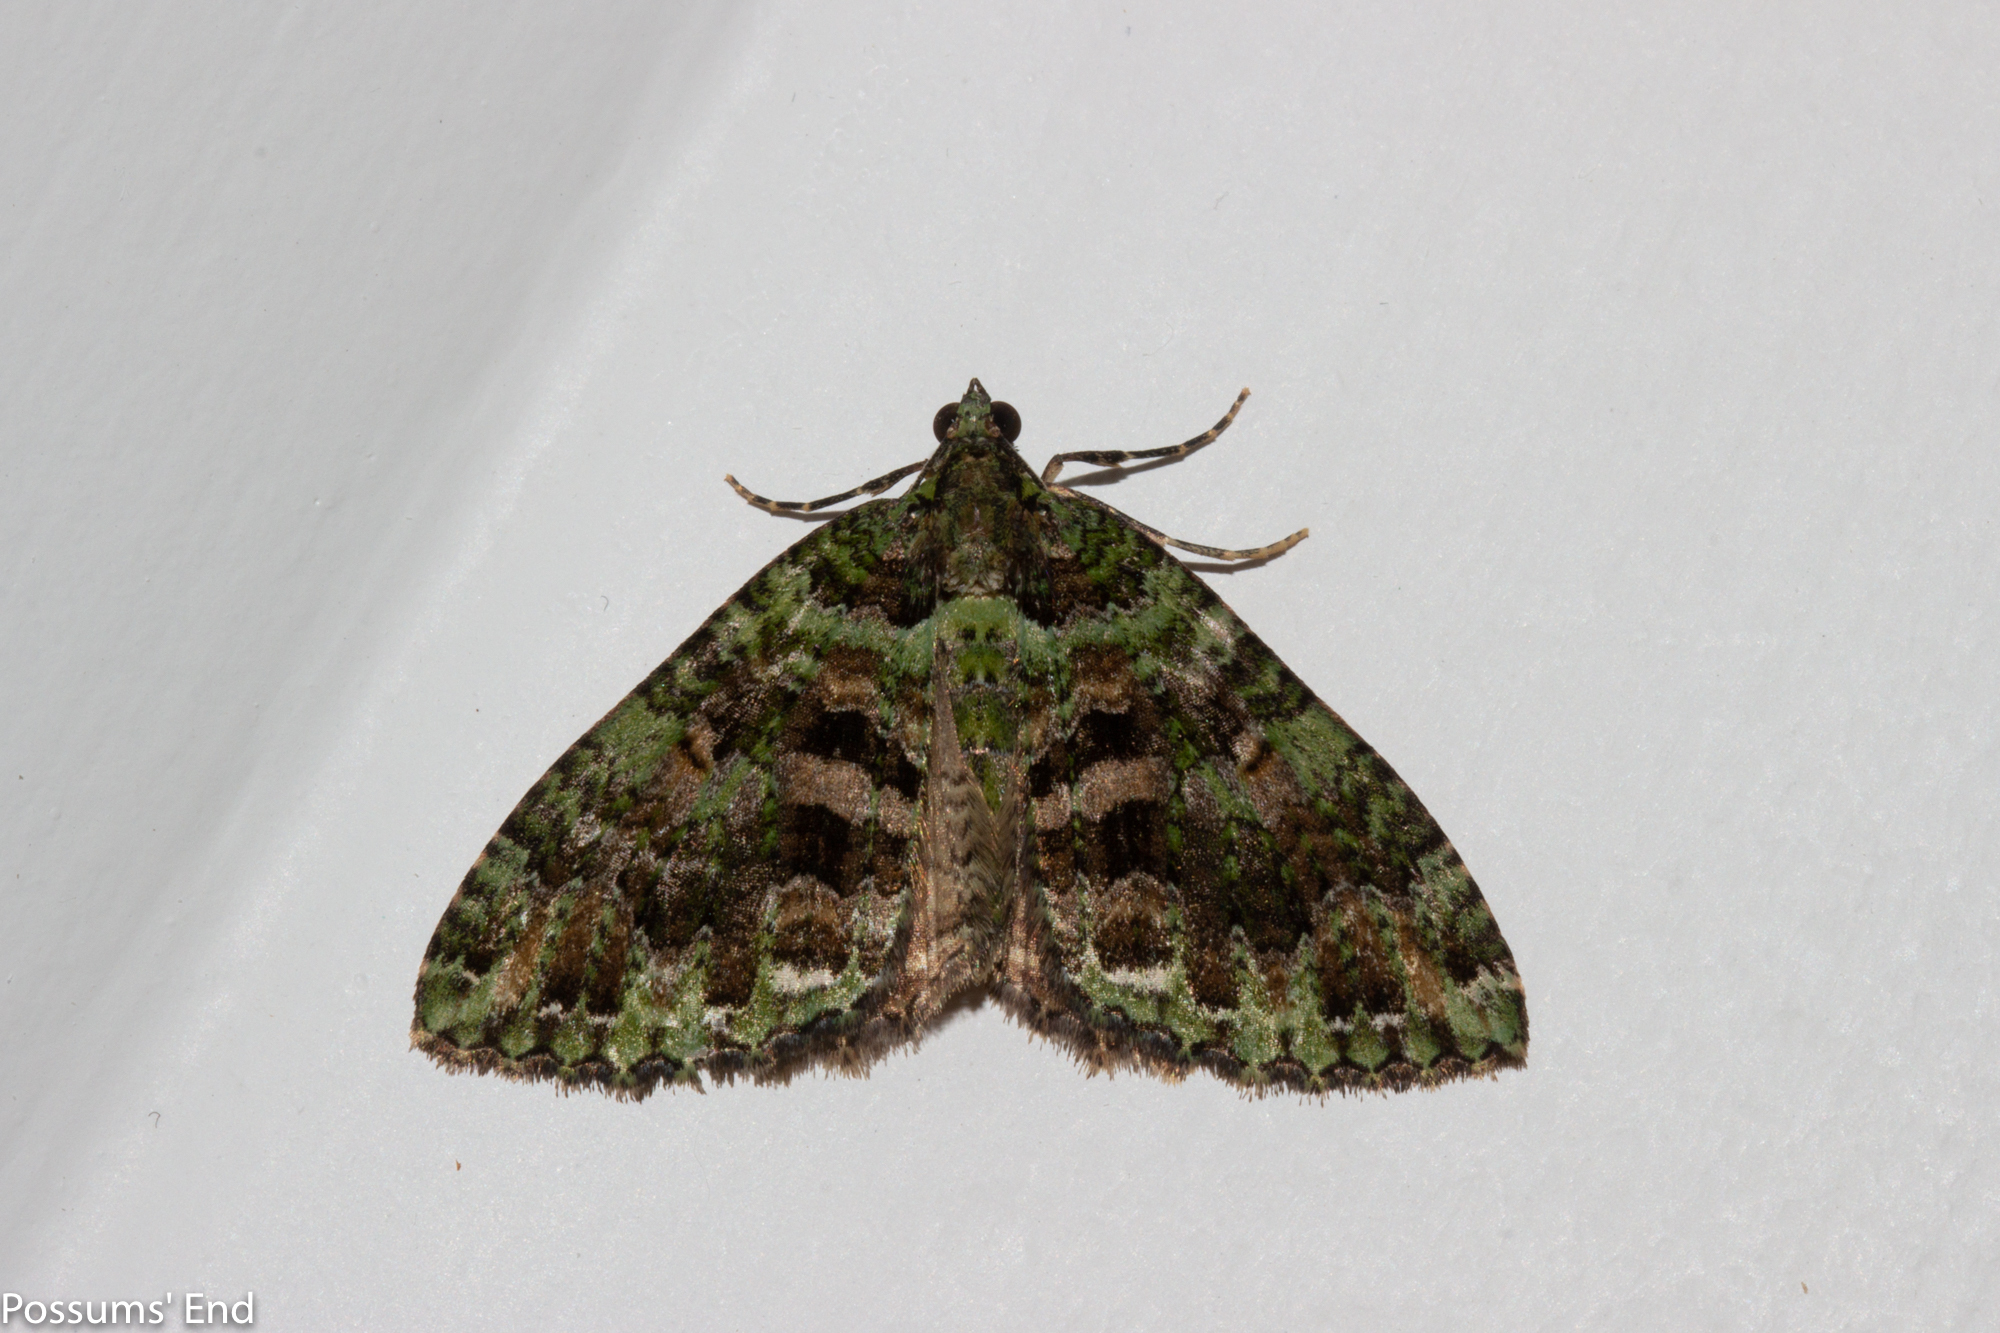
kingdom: Animalia
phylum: Arthropoda
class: Insecta
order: Lepidoptera
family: Geometridae
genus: Austrocidaria
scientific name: Austrocidaria similata
